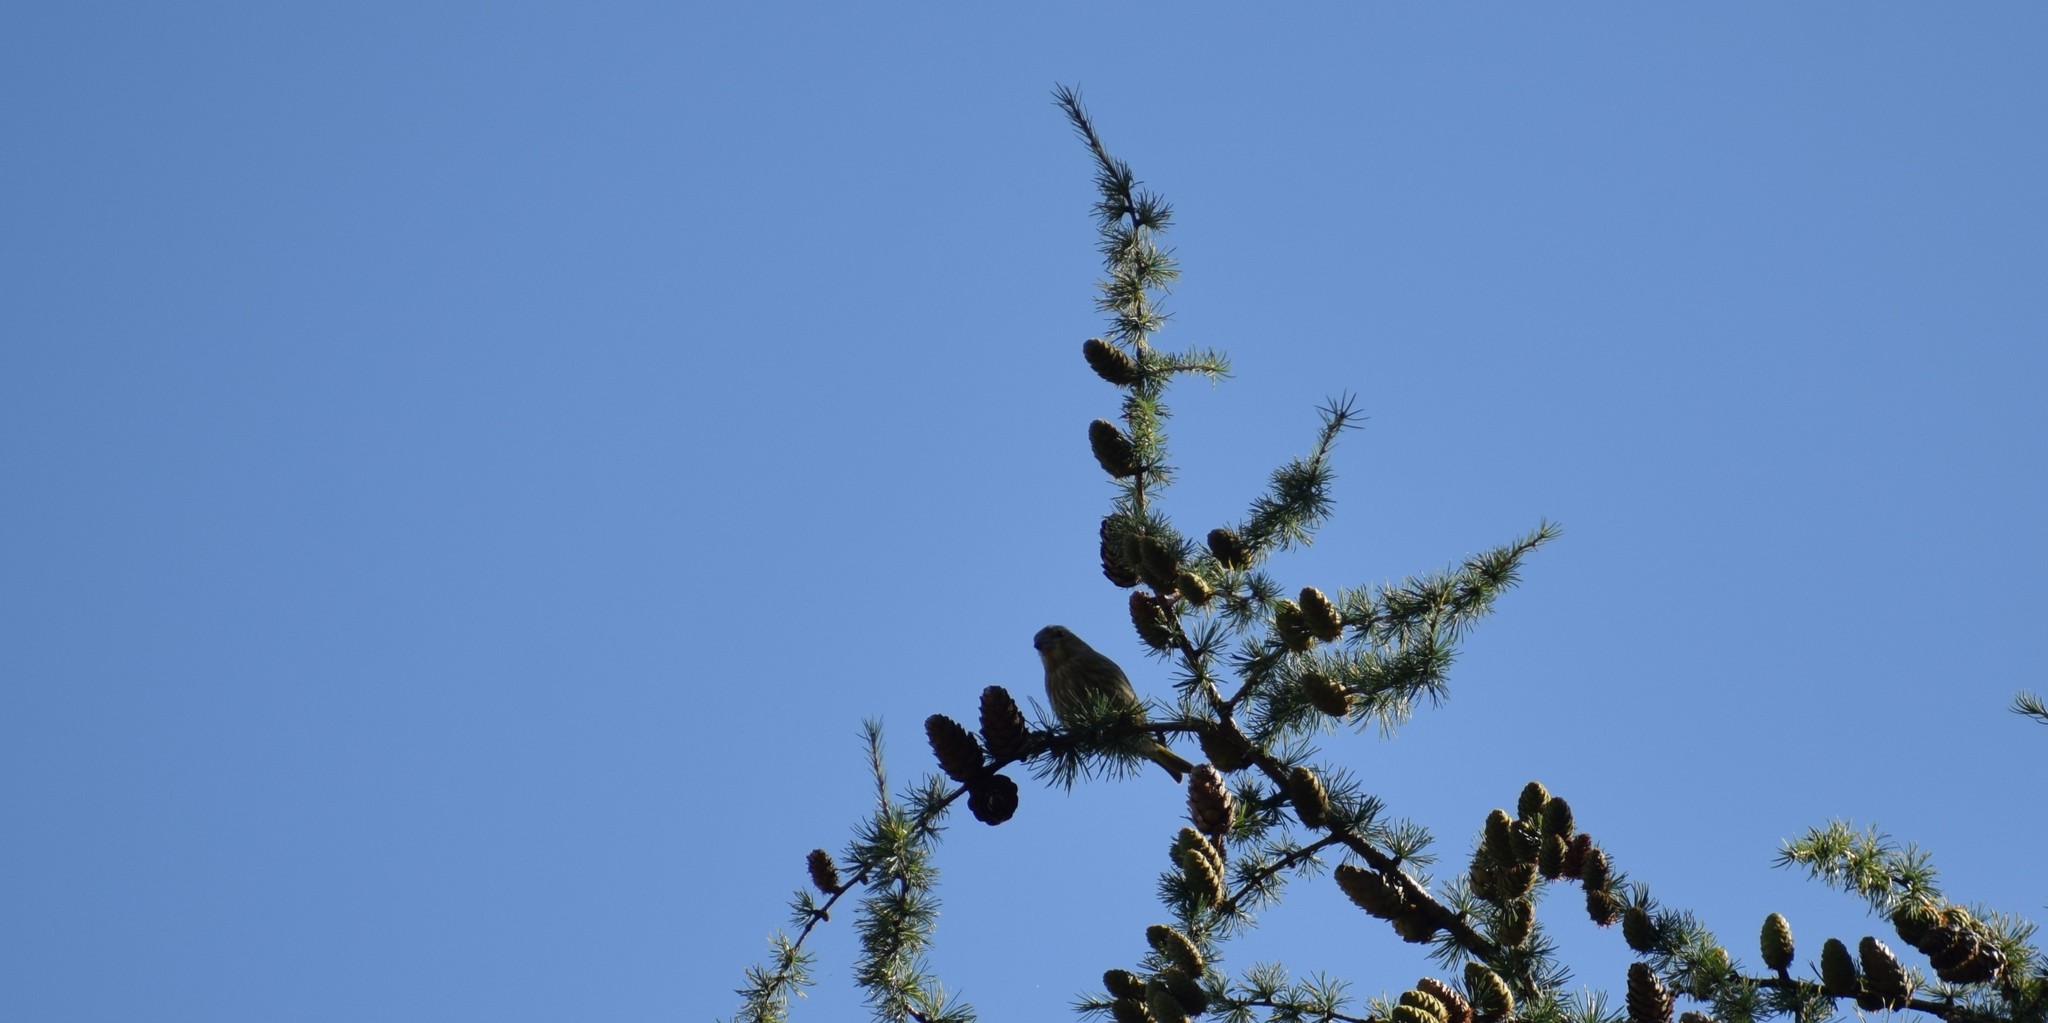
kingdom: Plantae
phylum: Tracheophyta
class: Liliopsida
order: Poales
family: Poaceae
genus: Chloris
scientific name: Chloris chloris
